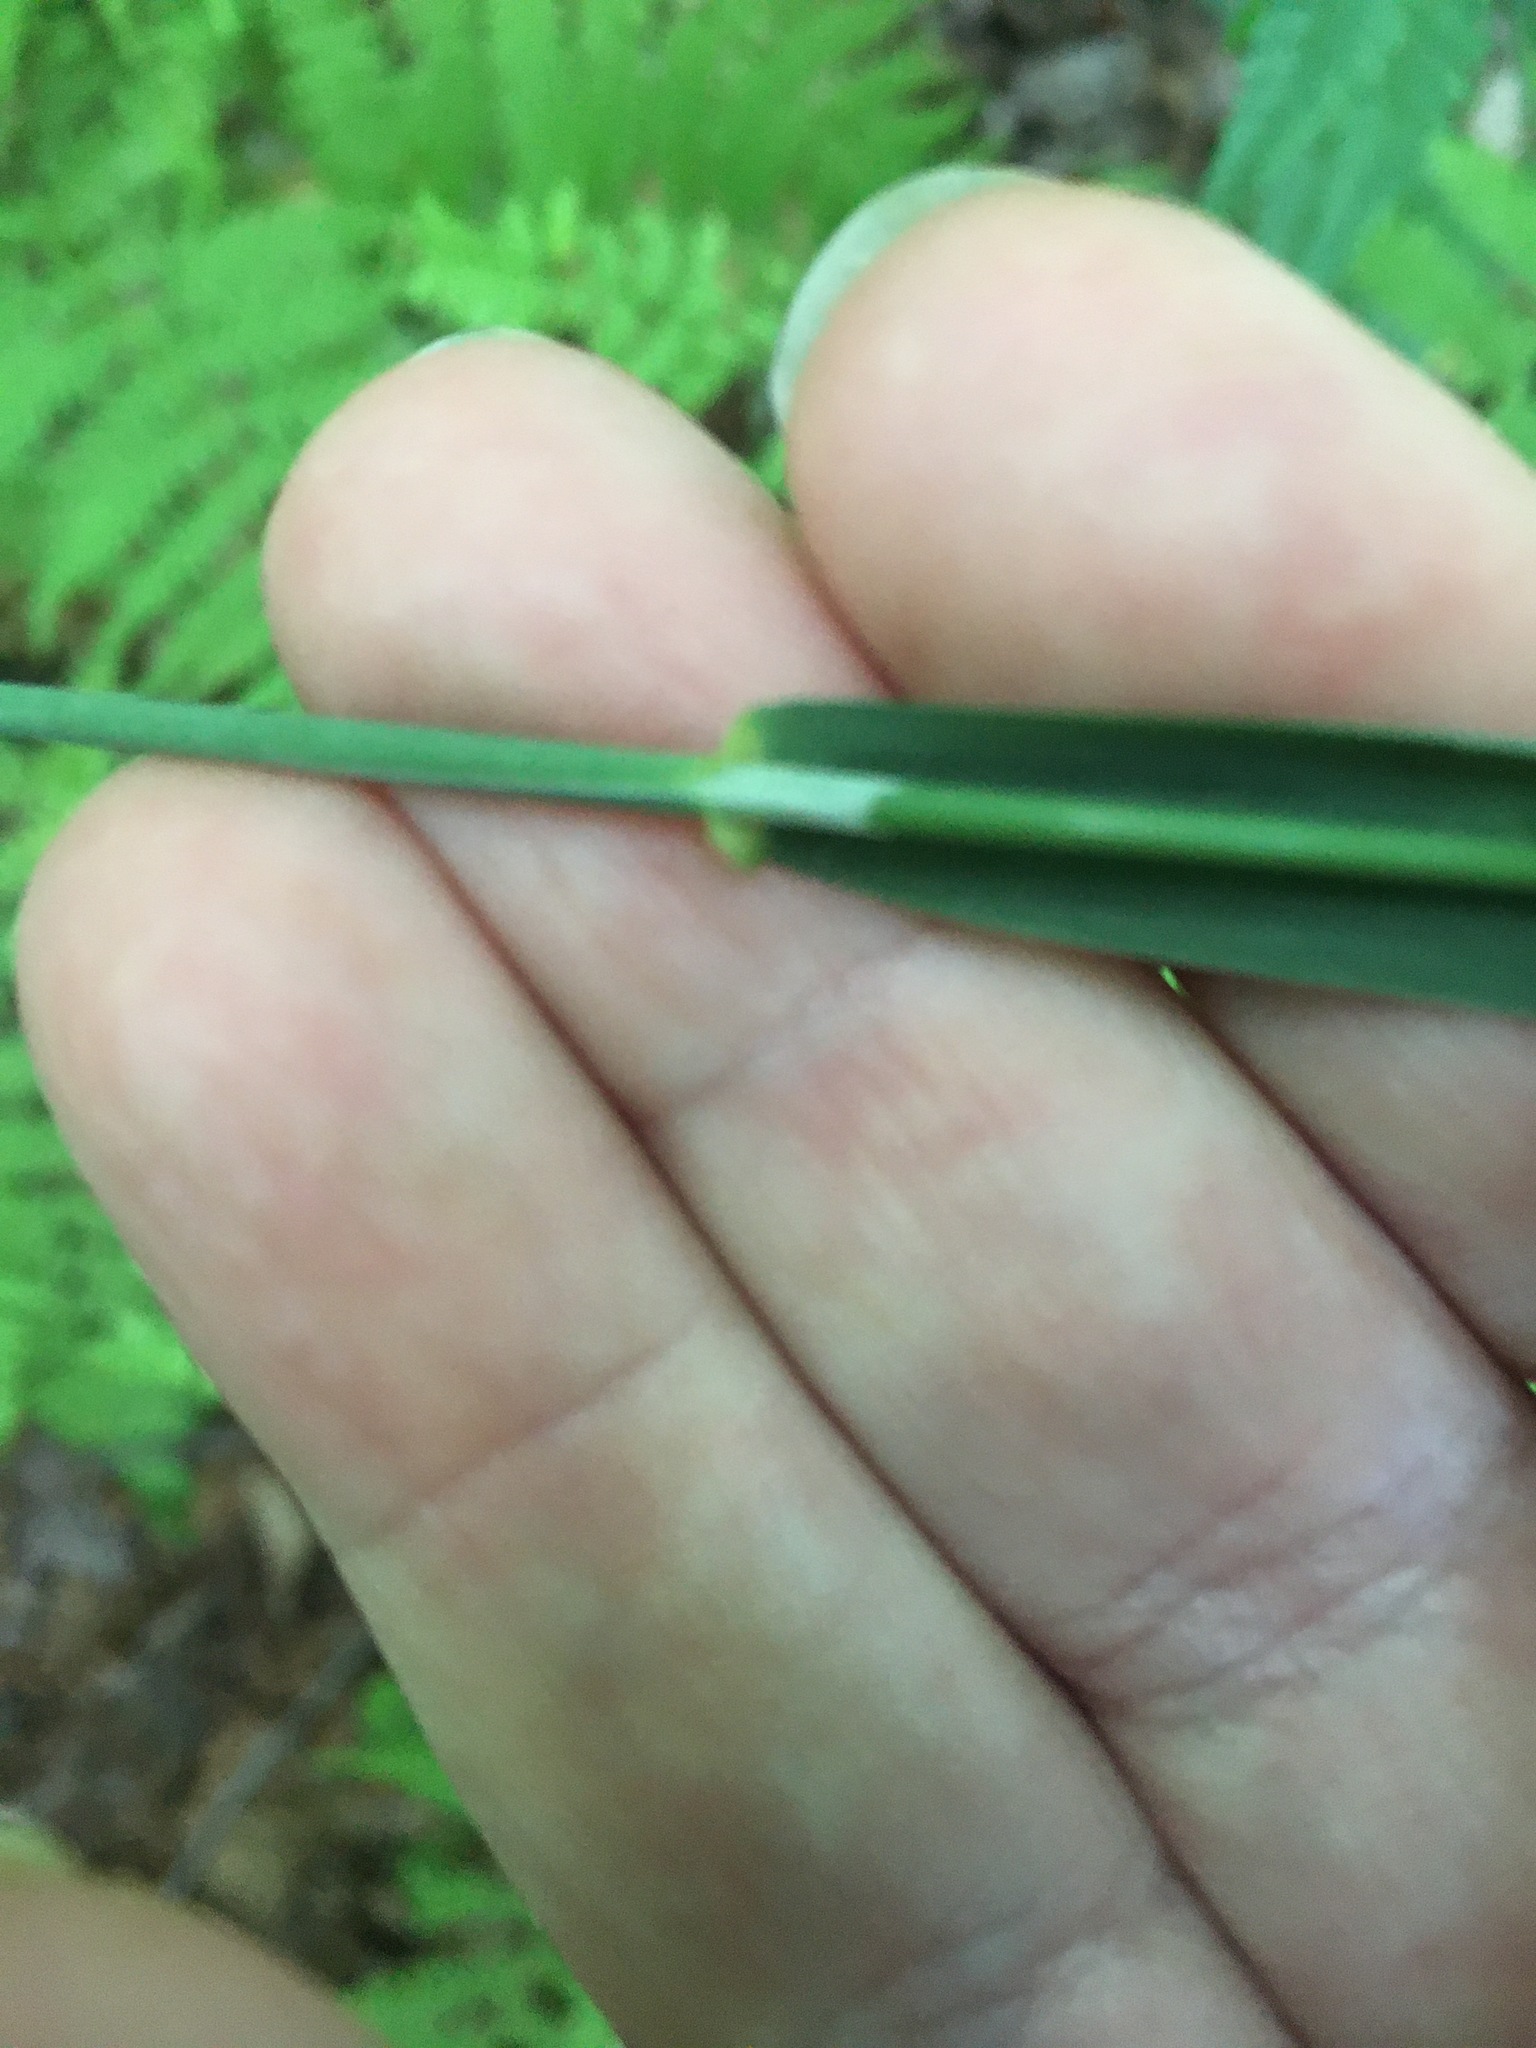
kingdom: Plantae
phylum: Tracheophyta
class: Liliopsida
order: Poales
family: Poaceae
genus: Milium
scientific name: Milium effusum
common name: Wood millet
